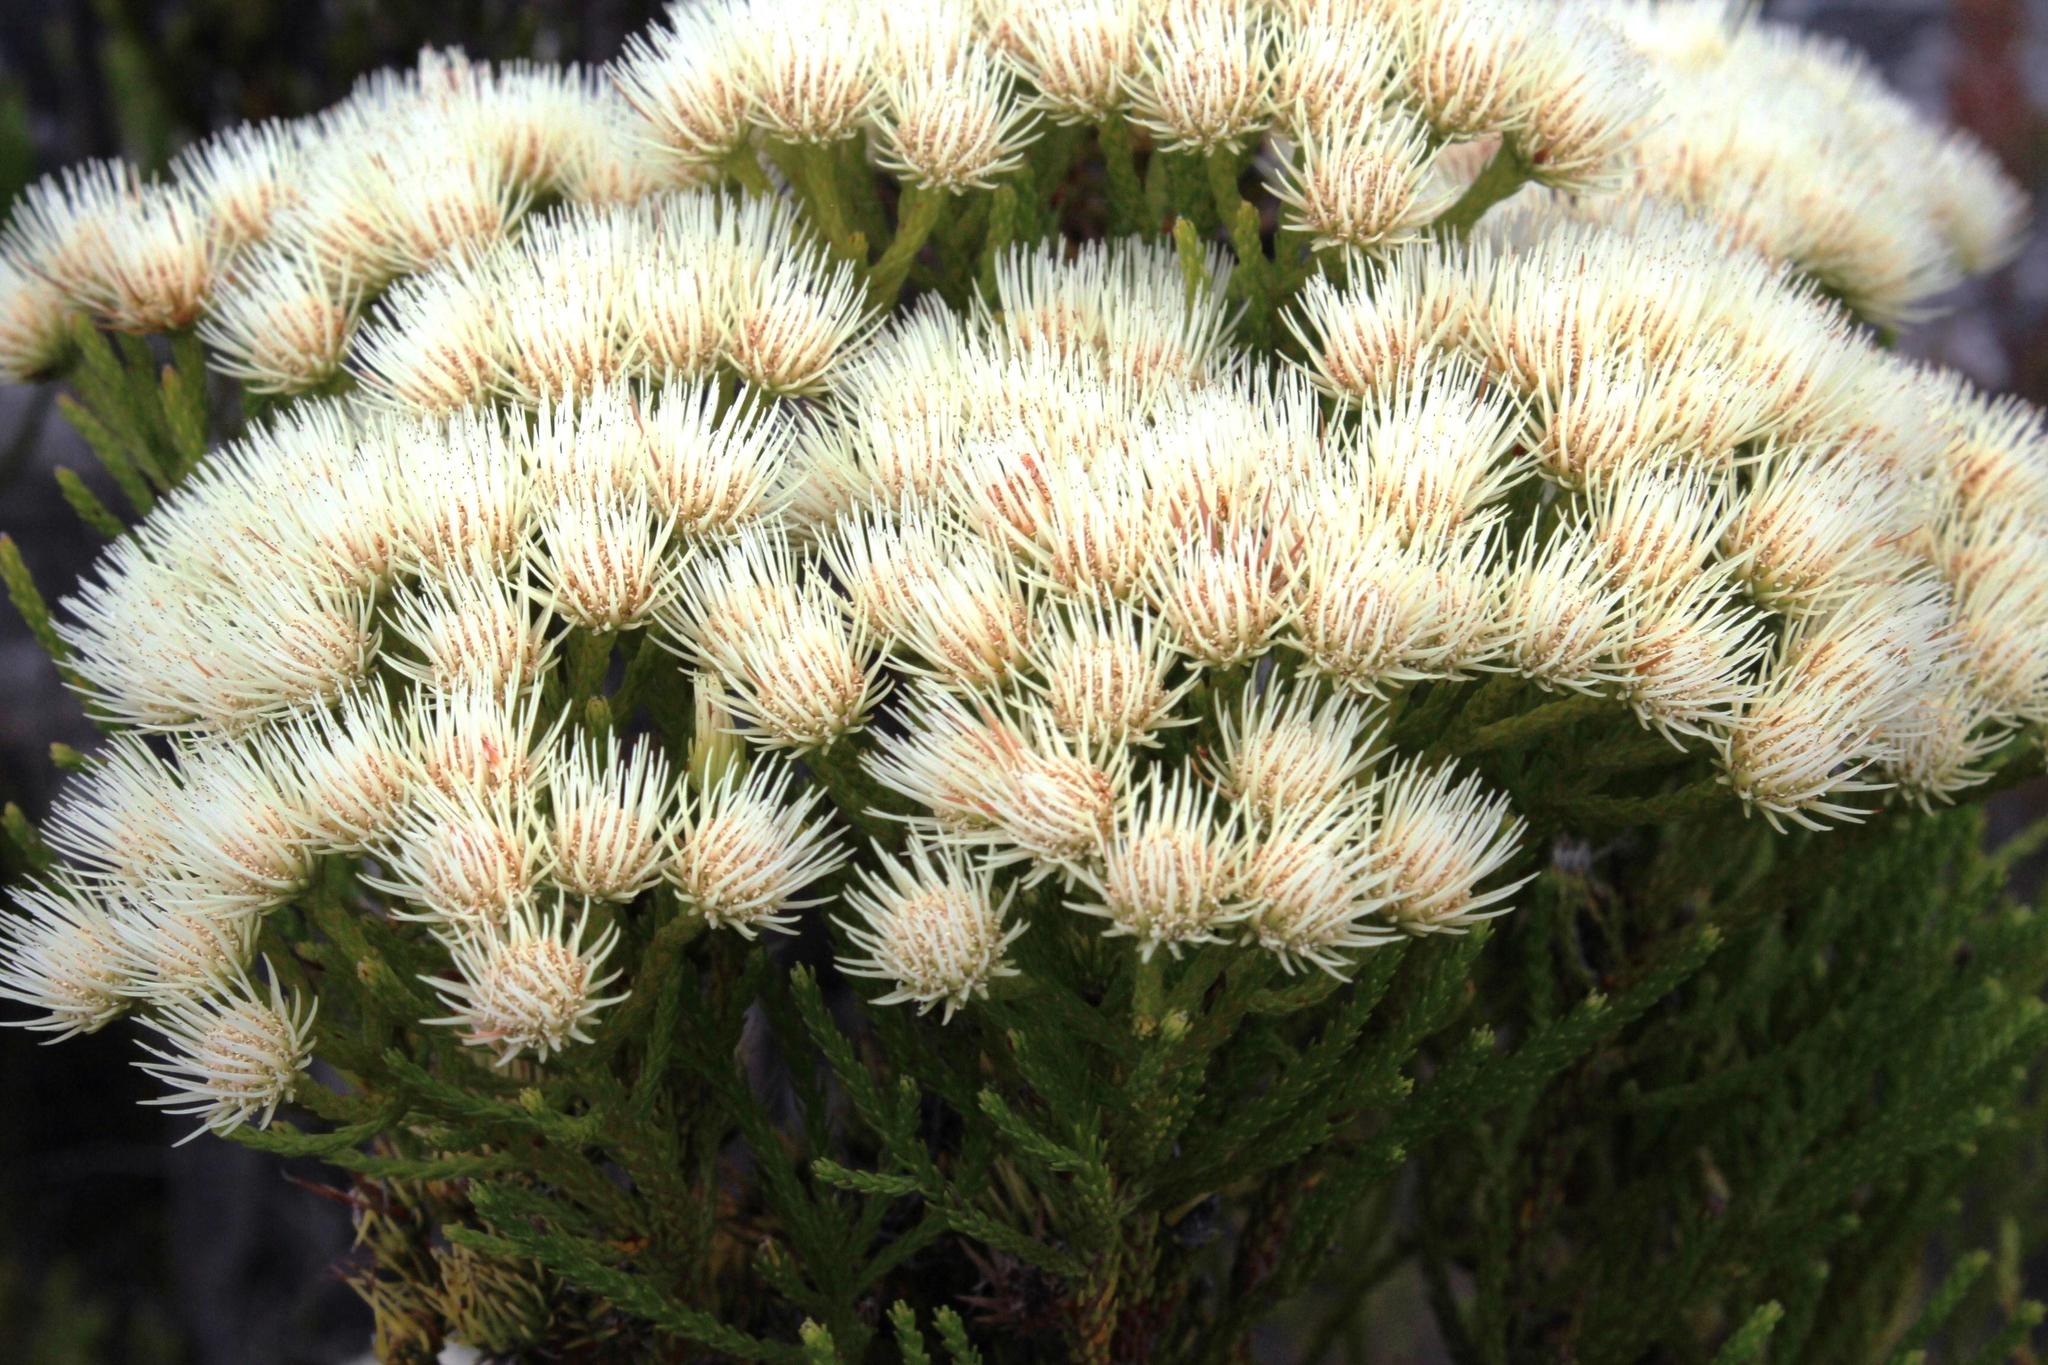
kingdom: Plantae
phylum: Tracheophyta
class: Magnoliopsida
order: Bruniales
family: Bruniaceae
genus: Brunia
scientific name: Brunia paleacea
